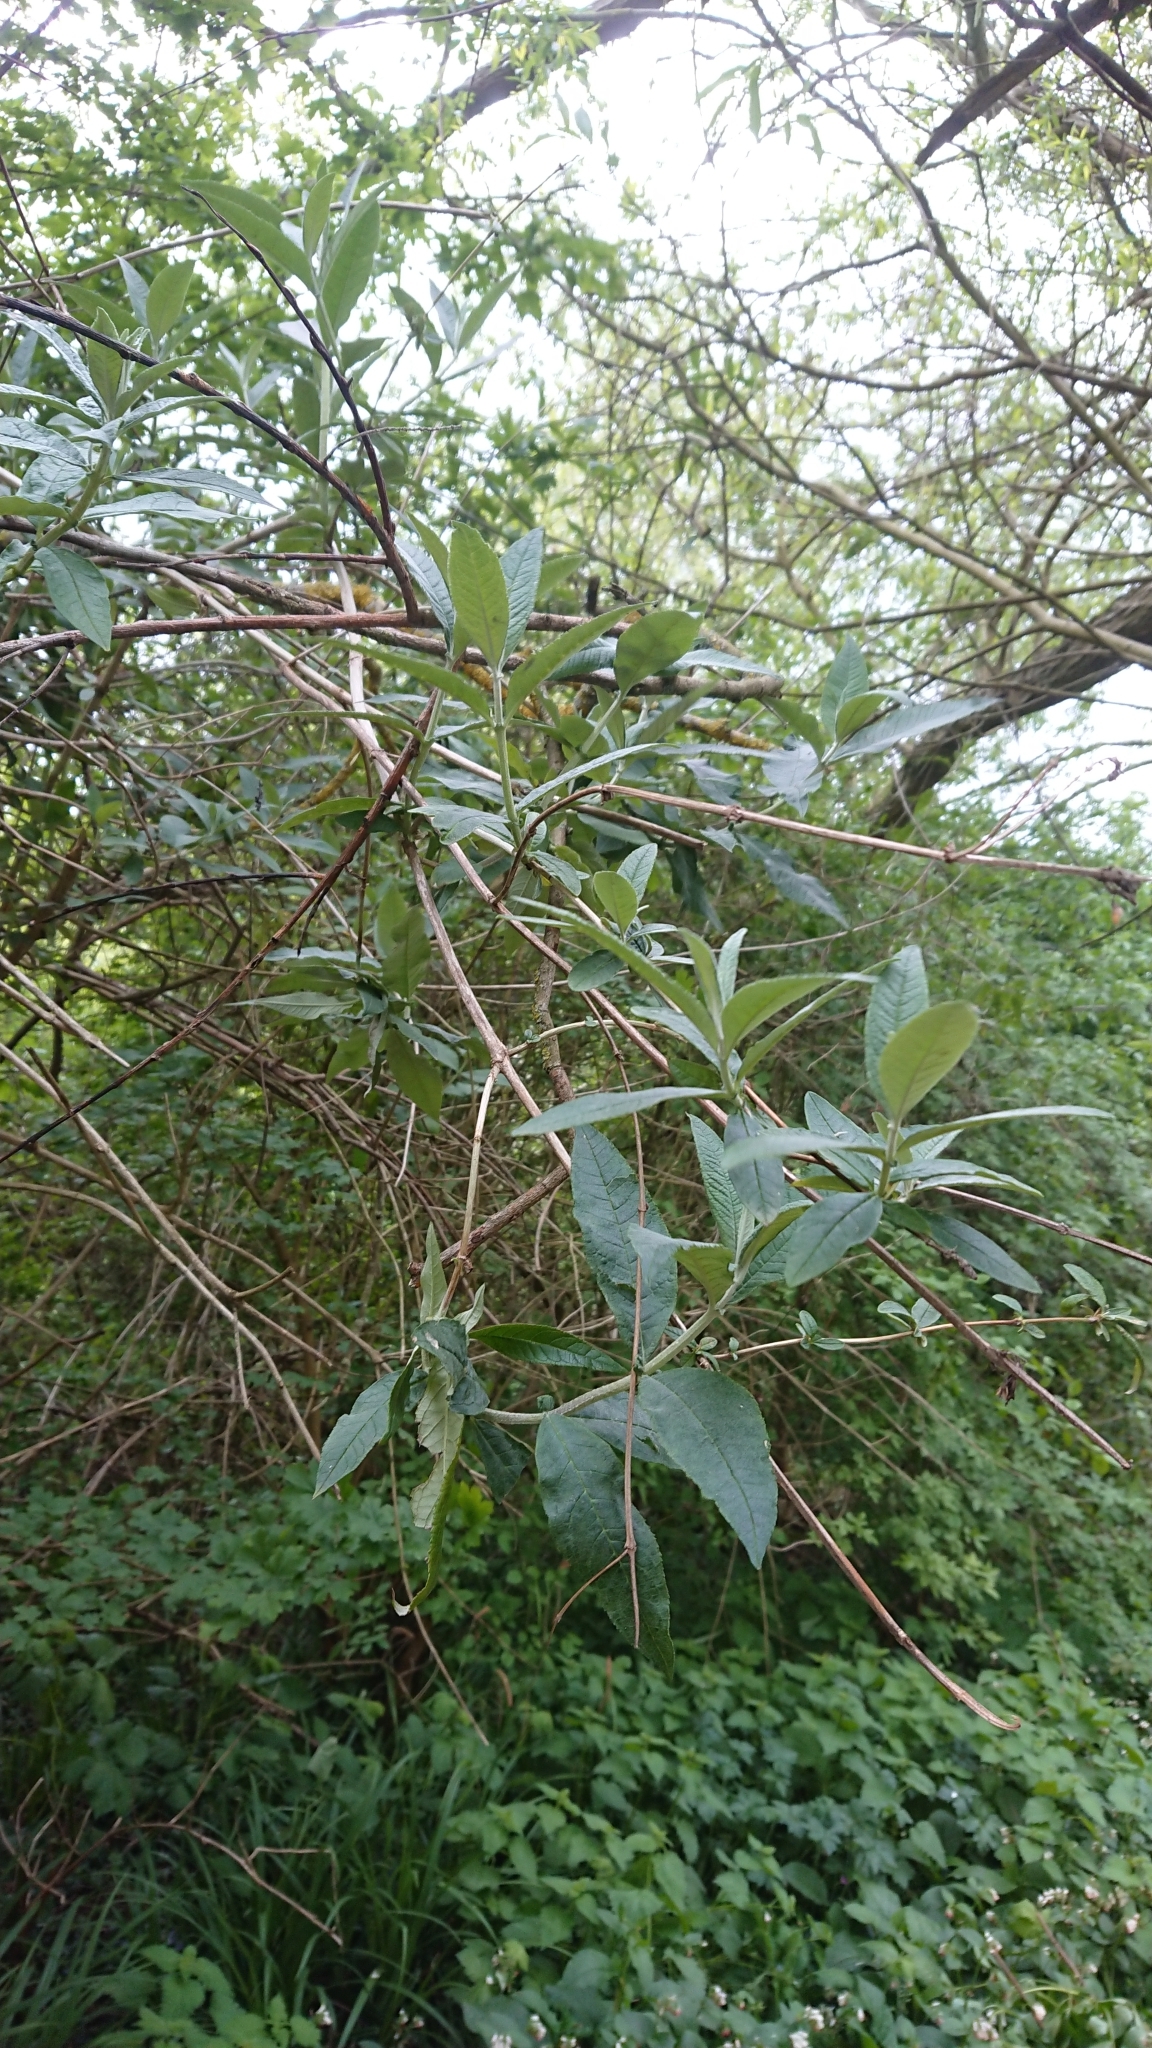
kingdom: Plantae
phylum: Tracheophyta
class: Magnoliopsida
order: Lamiales
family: Scrophulariaceae
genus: Buddleja
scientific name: Buddleja davidii
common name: Butterfly-bush
